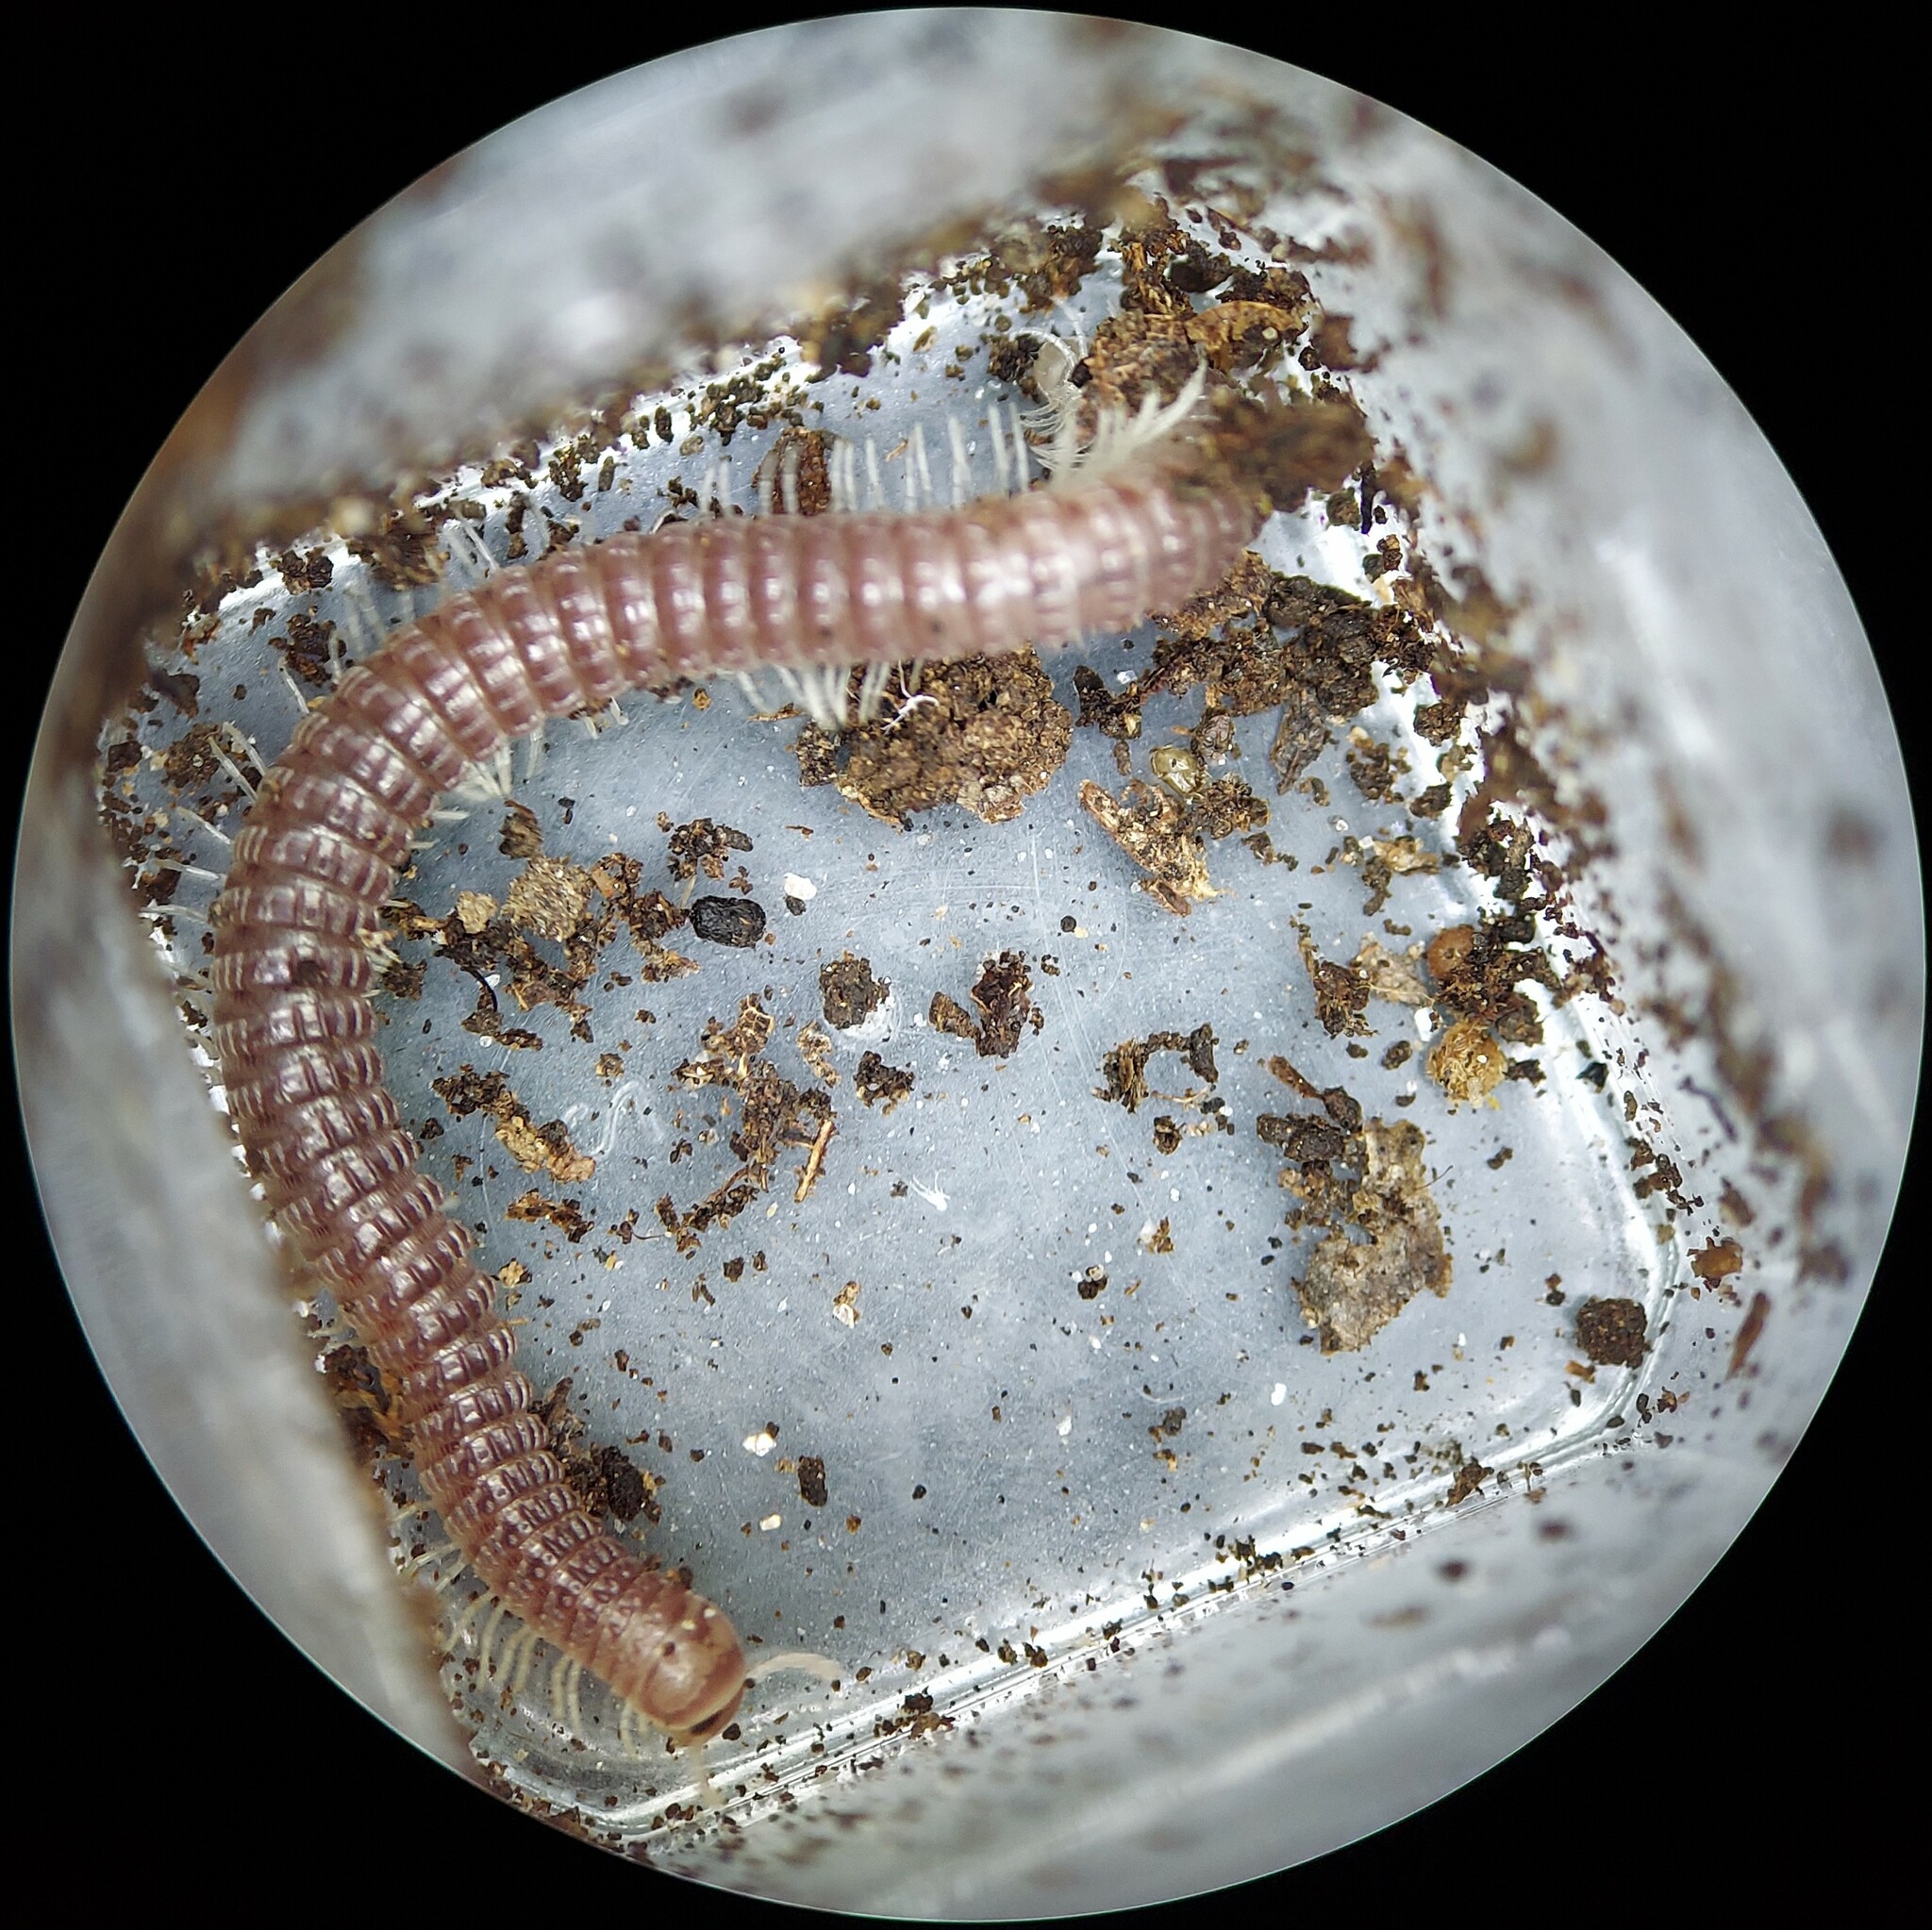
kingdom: Animalia
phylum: Arthropoda
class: Diplopoda
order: Spirostreptida
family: Cambalidae
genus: Cambala
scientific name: Cambala annulata
